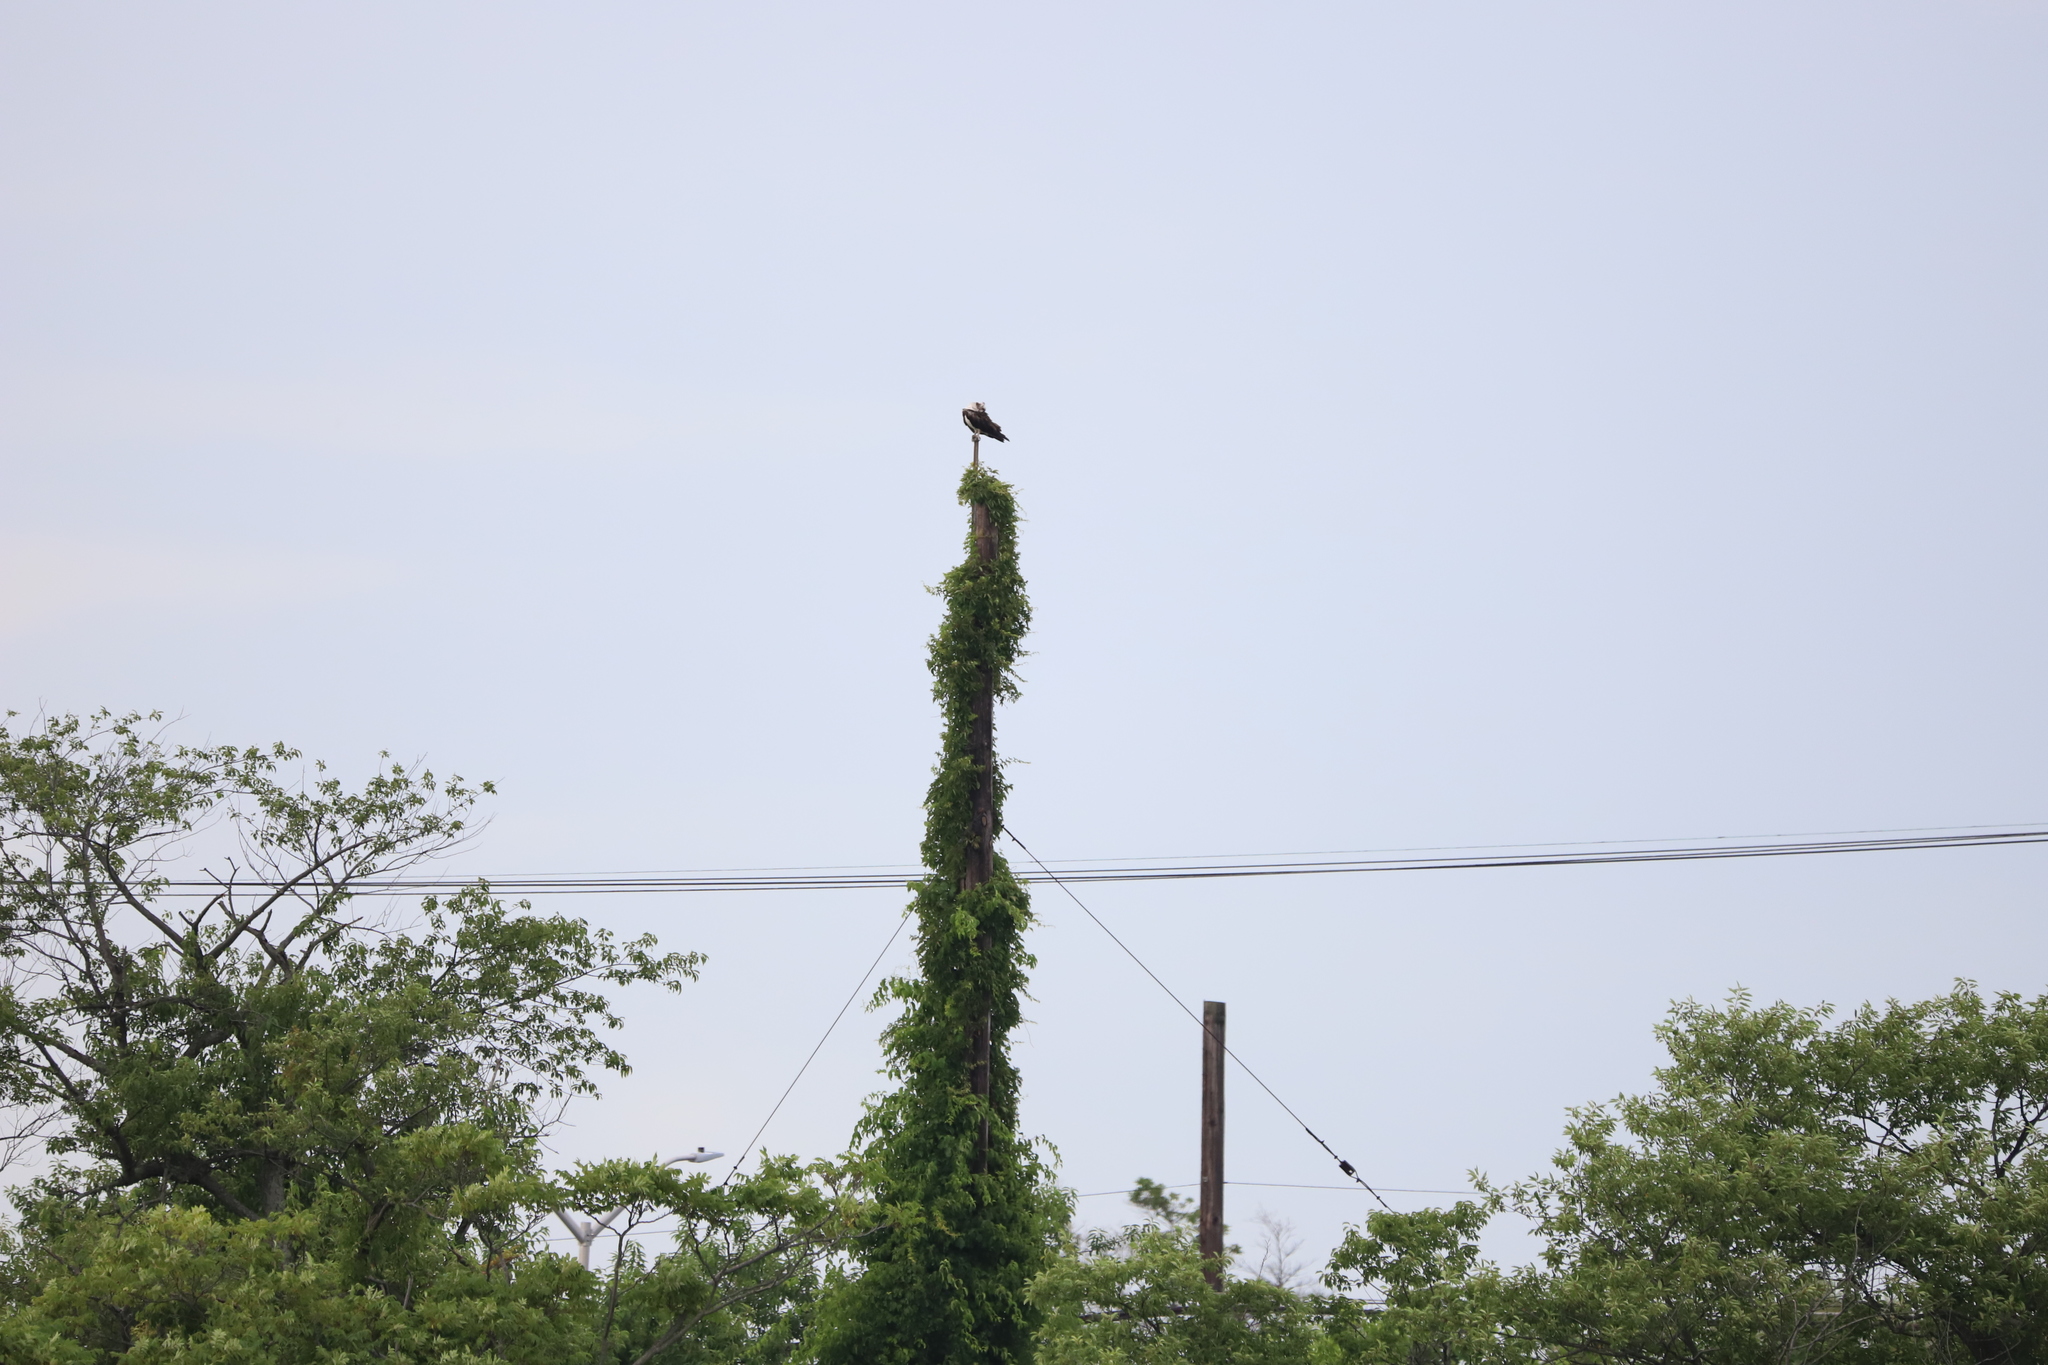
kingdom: Animalia
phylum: Chordata
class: Aves
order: Accipitriformes
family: Pandionidae
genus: Pandion
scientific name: Pandion haliaetus
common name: Osprey
